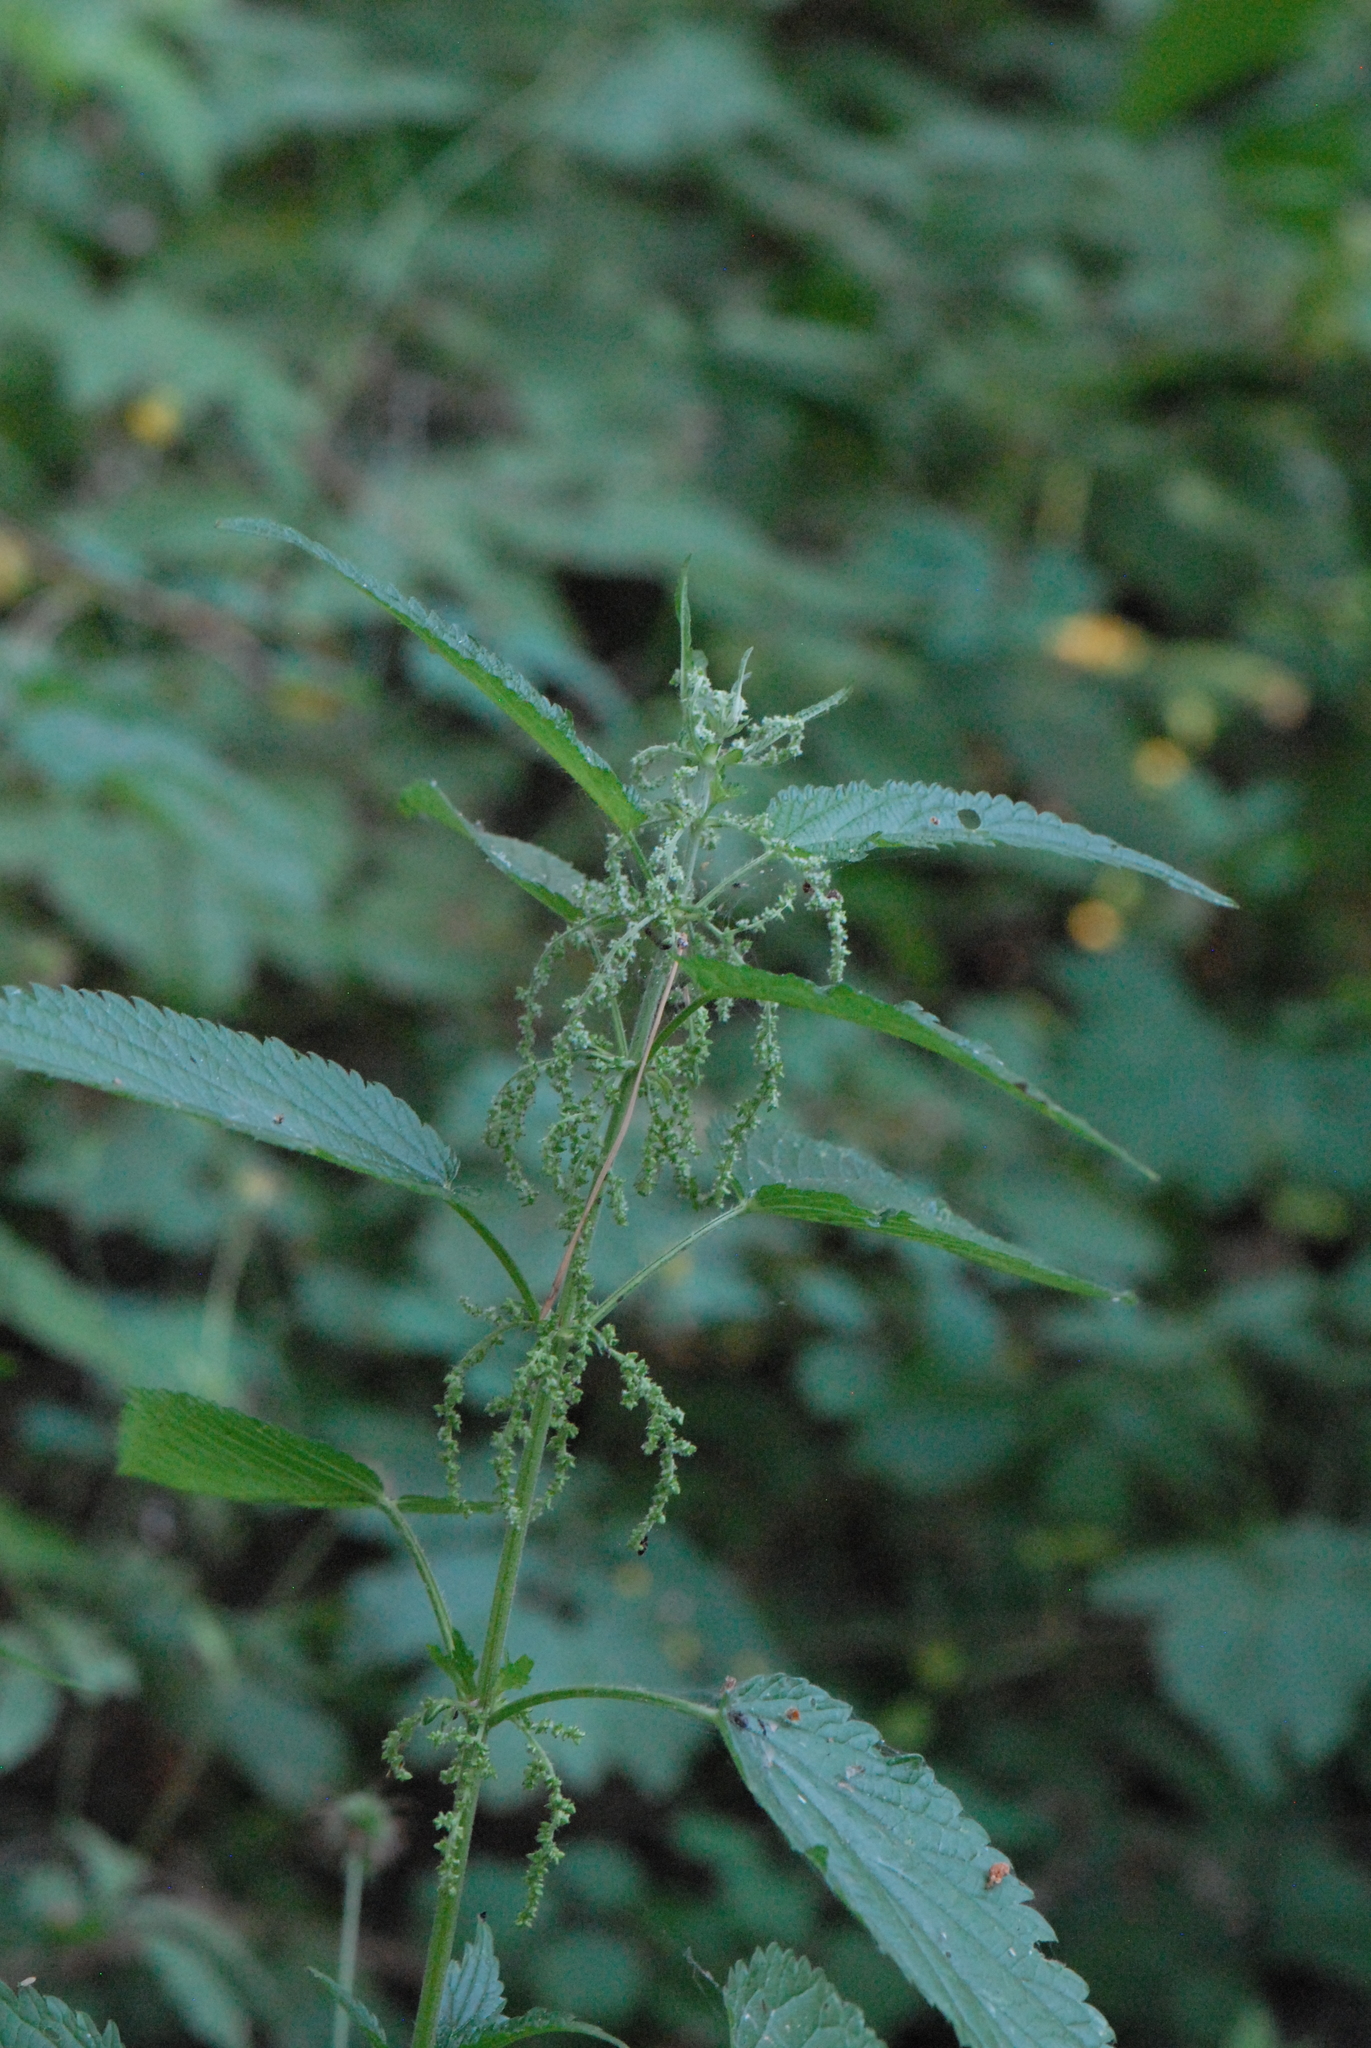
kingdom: Plantae
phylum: Tracheophyta
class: Magnoliopsida
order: Rosales
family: Urticaceae
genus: Urtica
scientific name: Urtica dioica
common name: Common nettle
